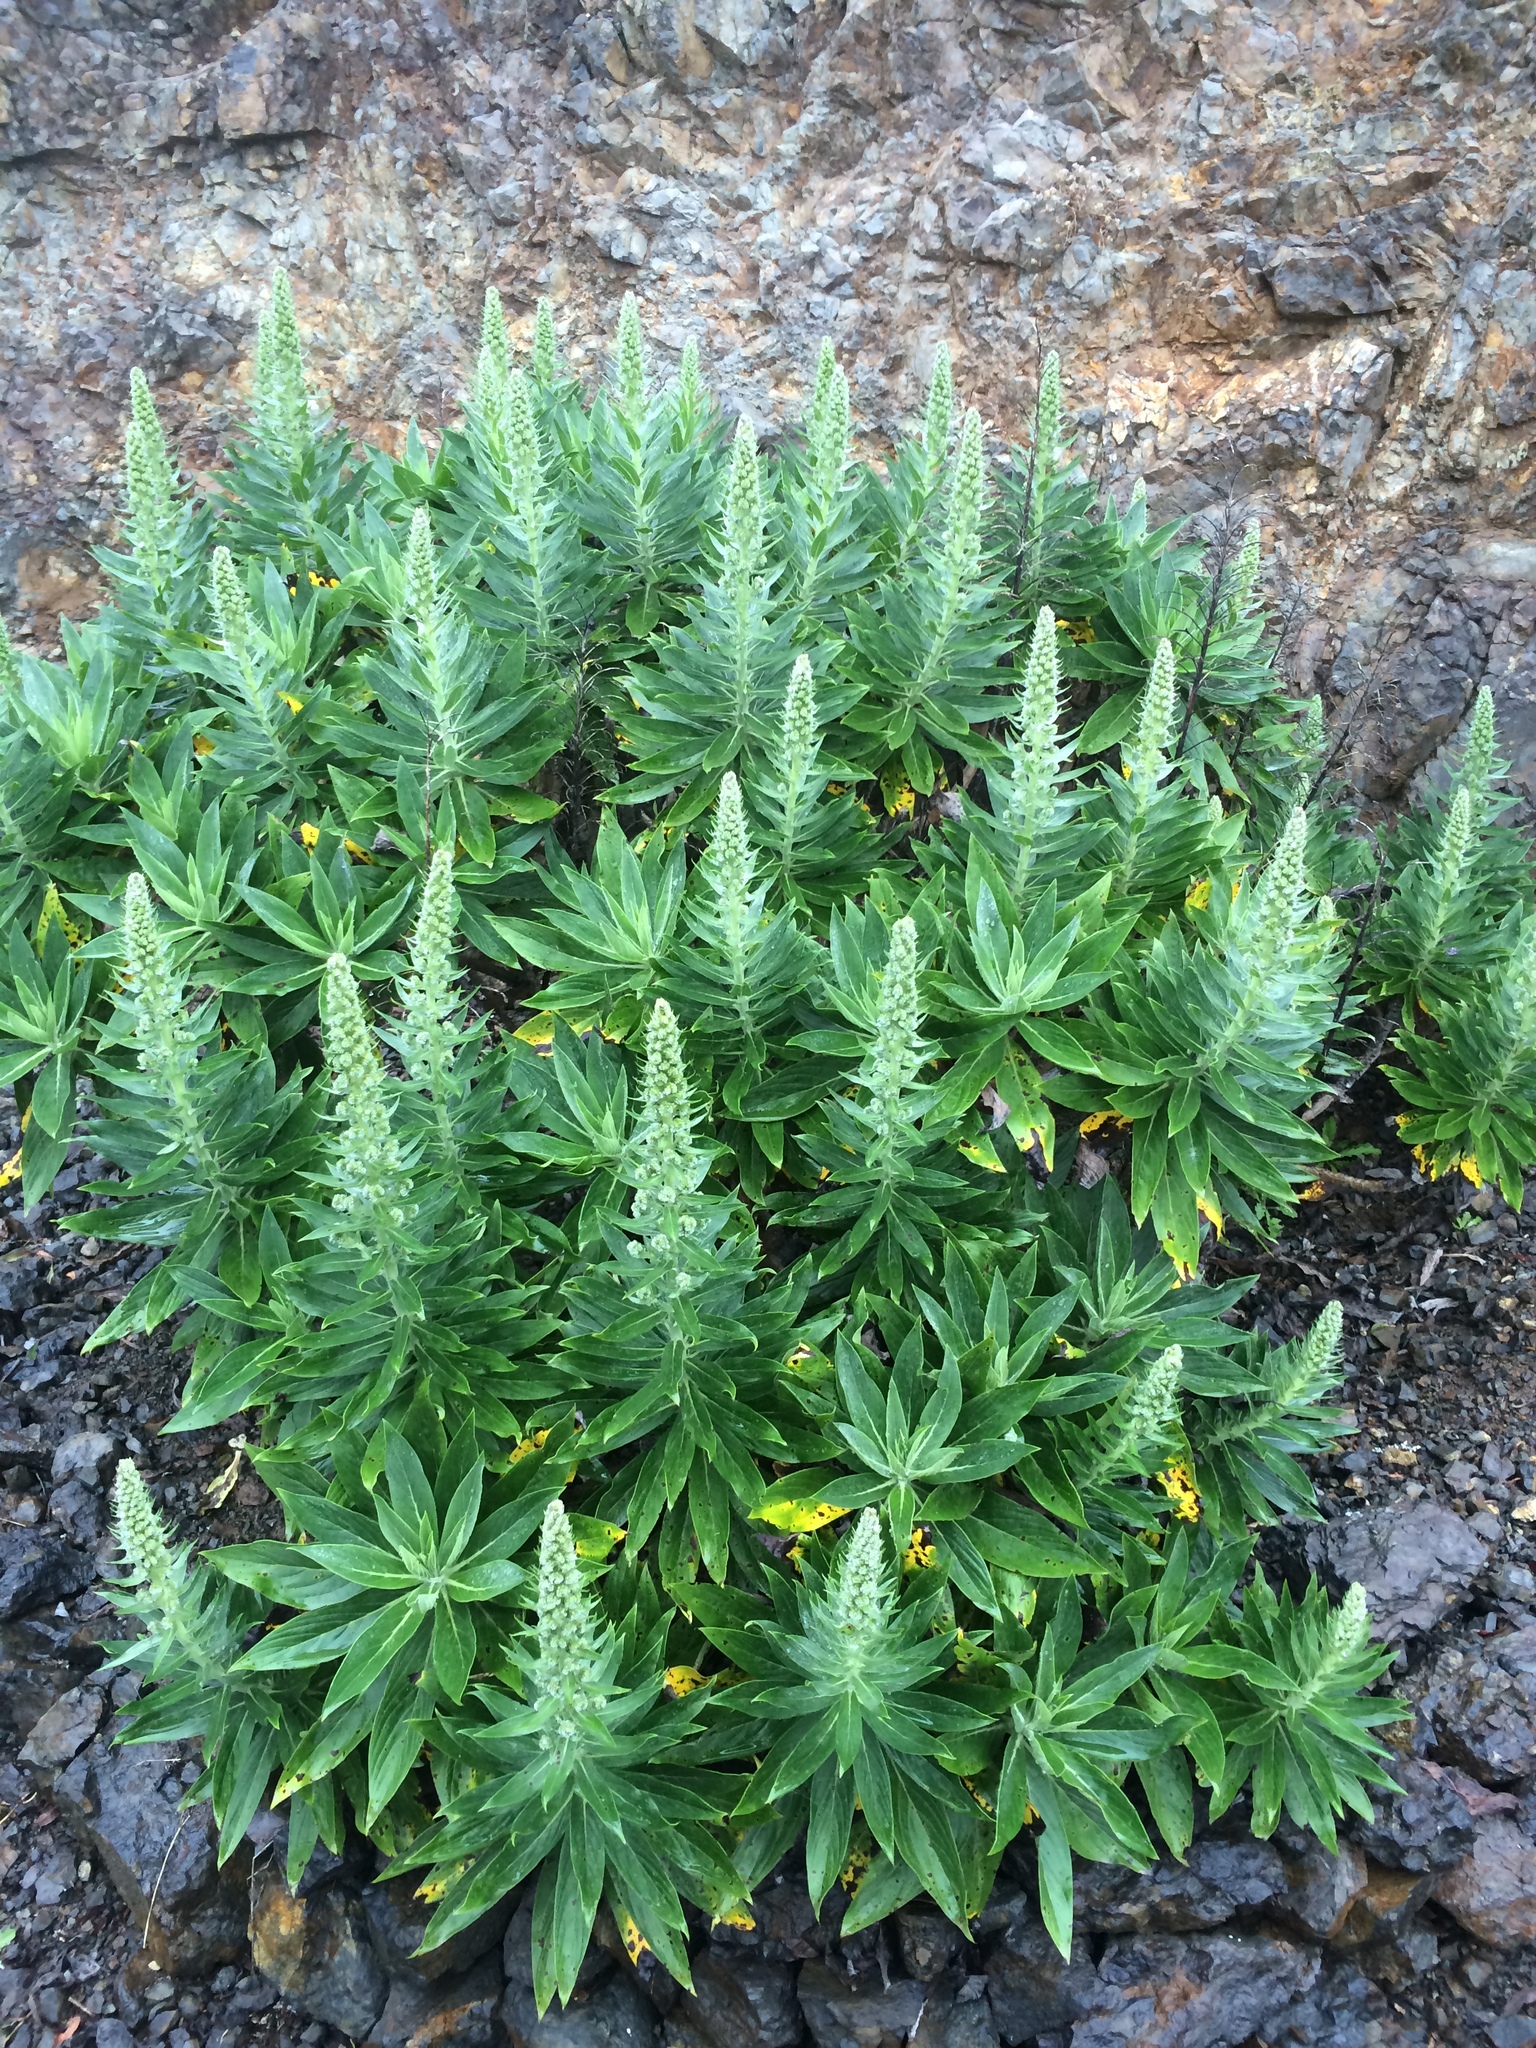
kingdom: Plantae
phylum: Tracheophyta
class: Magnoliopsida
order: Boraginales
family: Boraginaceae
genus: Echium
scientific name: Echium acanthocarpum
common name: Blue bugloss
